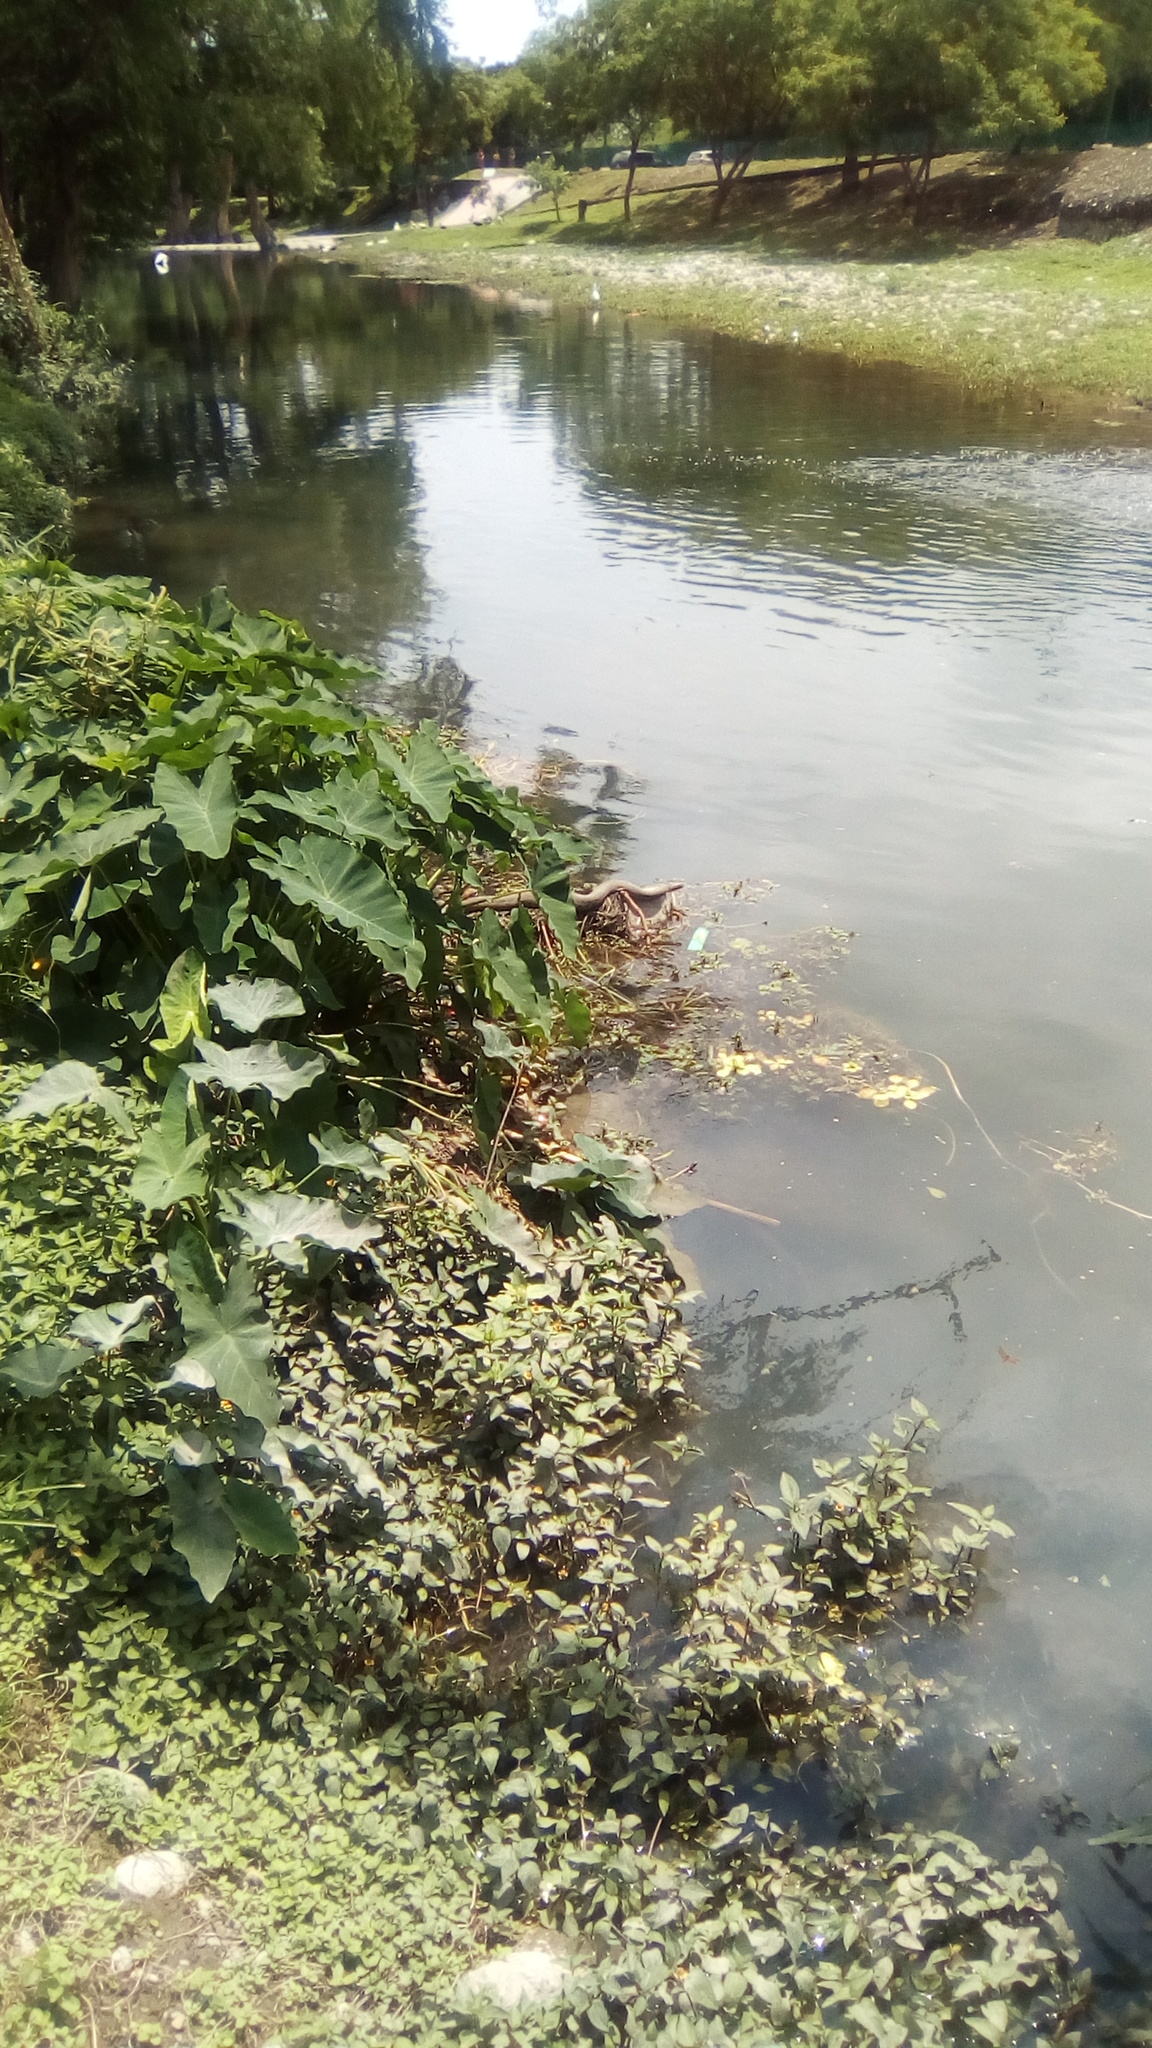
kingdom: Animalia
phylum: Chordata
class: Squamata
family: Colubridae
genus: Nerodia
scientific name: Nerodia rhombifer
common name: Diamondback water snake
